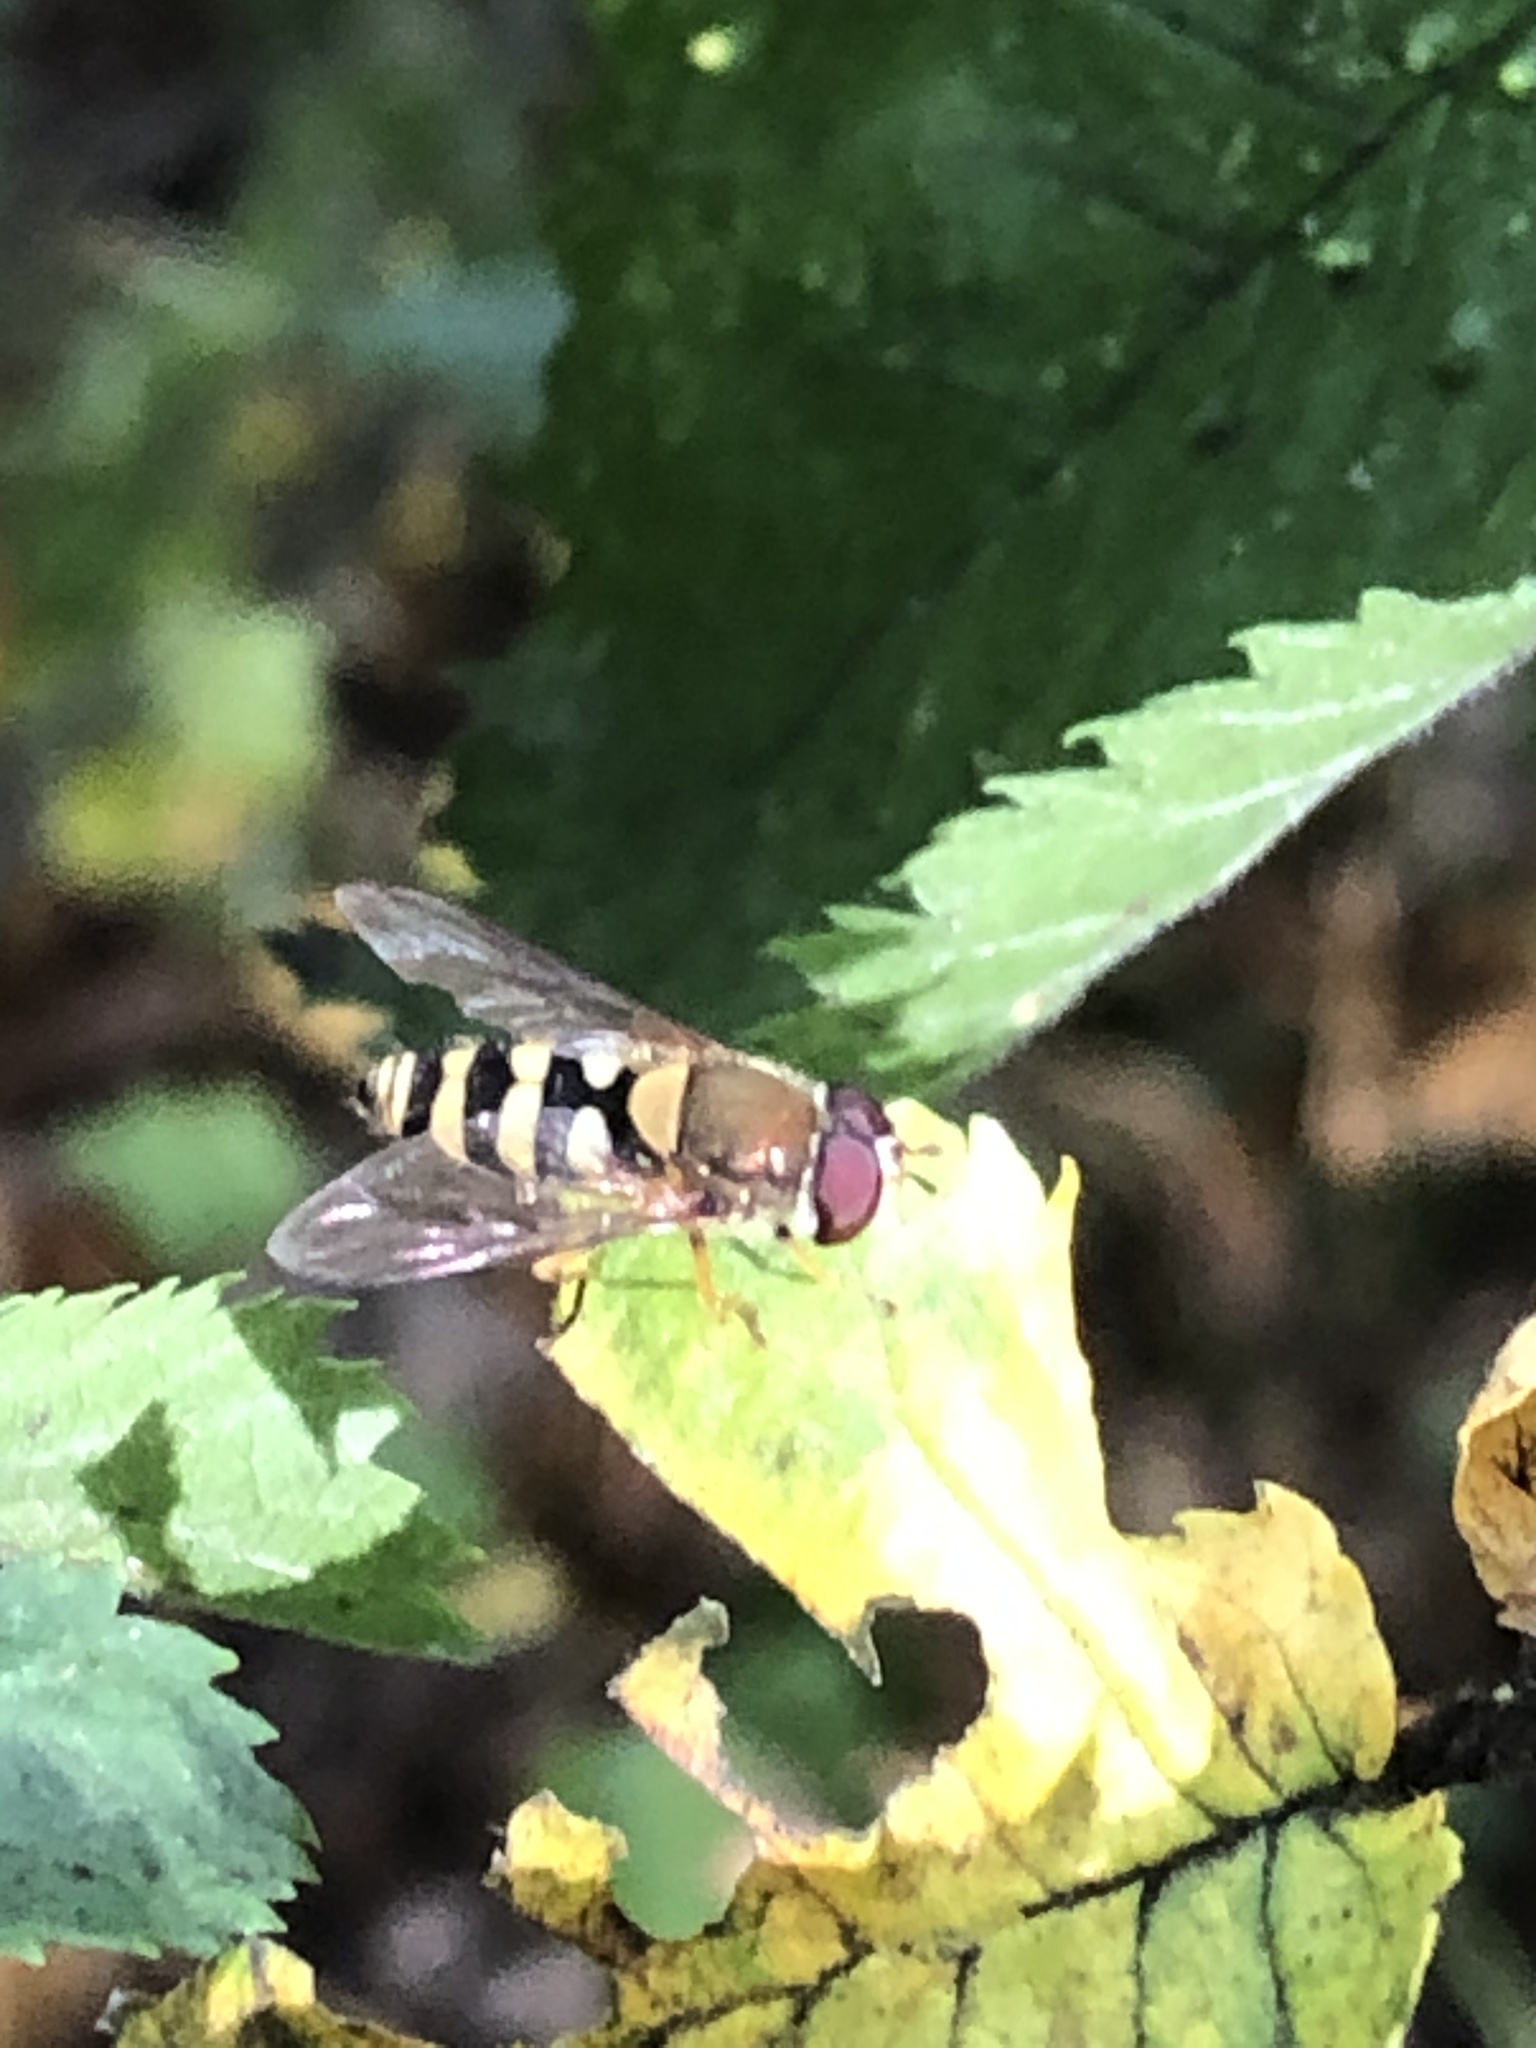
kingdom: Animalia
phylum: Arthropoda
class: Insecta
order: Diptera
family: Syrphidae
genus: Syrphus
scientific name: Syrphus
